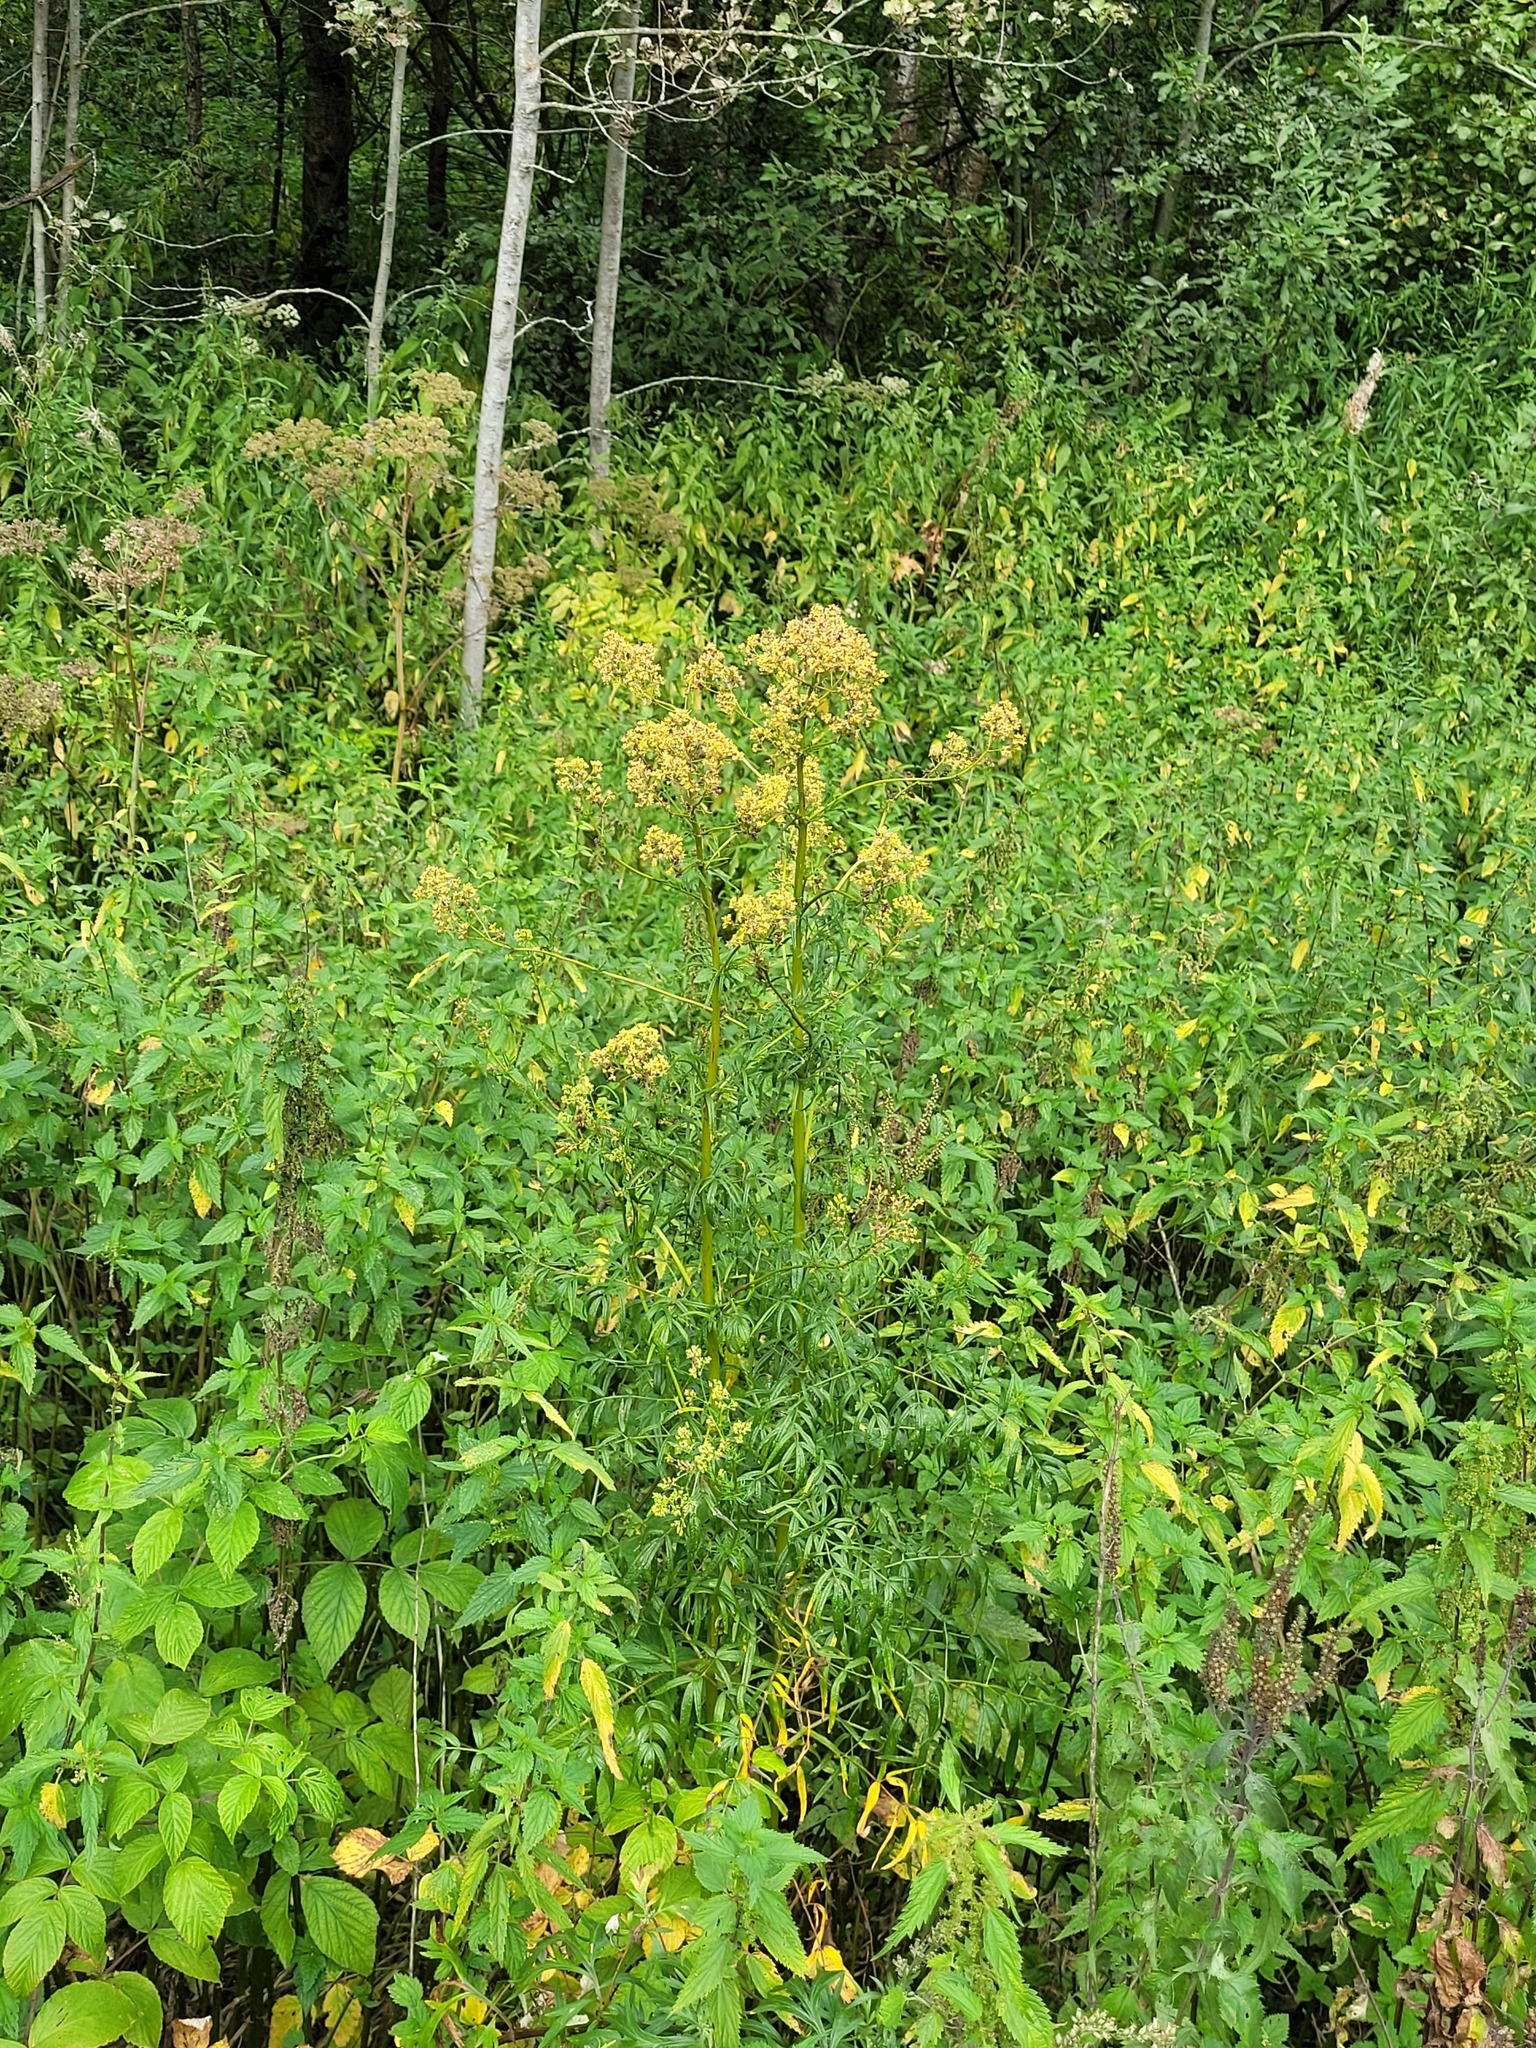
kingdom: Plantae
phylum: Tracheophyta
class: Magnoliopsida
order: Ranunculales
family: Ranunculaceae
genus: Thalictrum
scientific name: Thalictrum lucidum
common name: Shining meadow-rue
